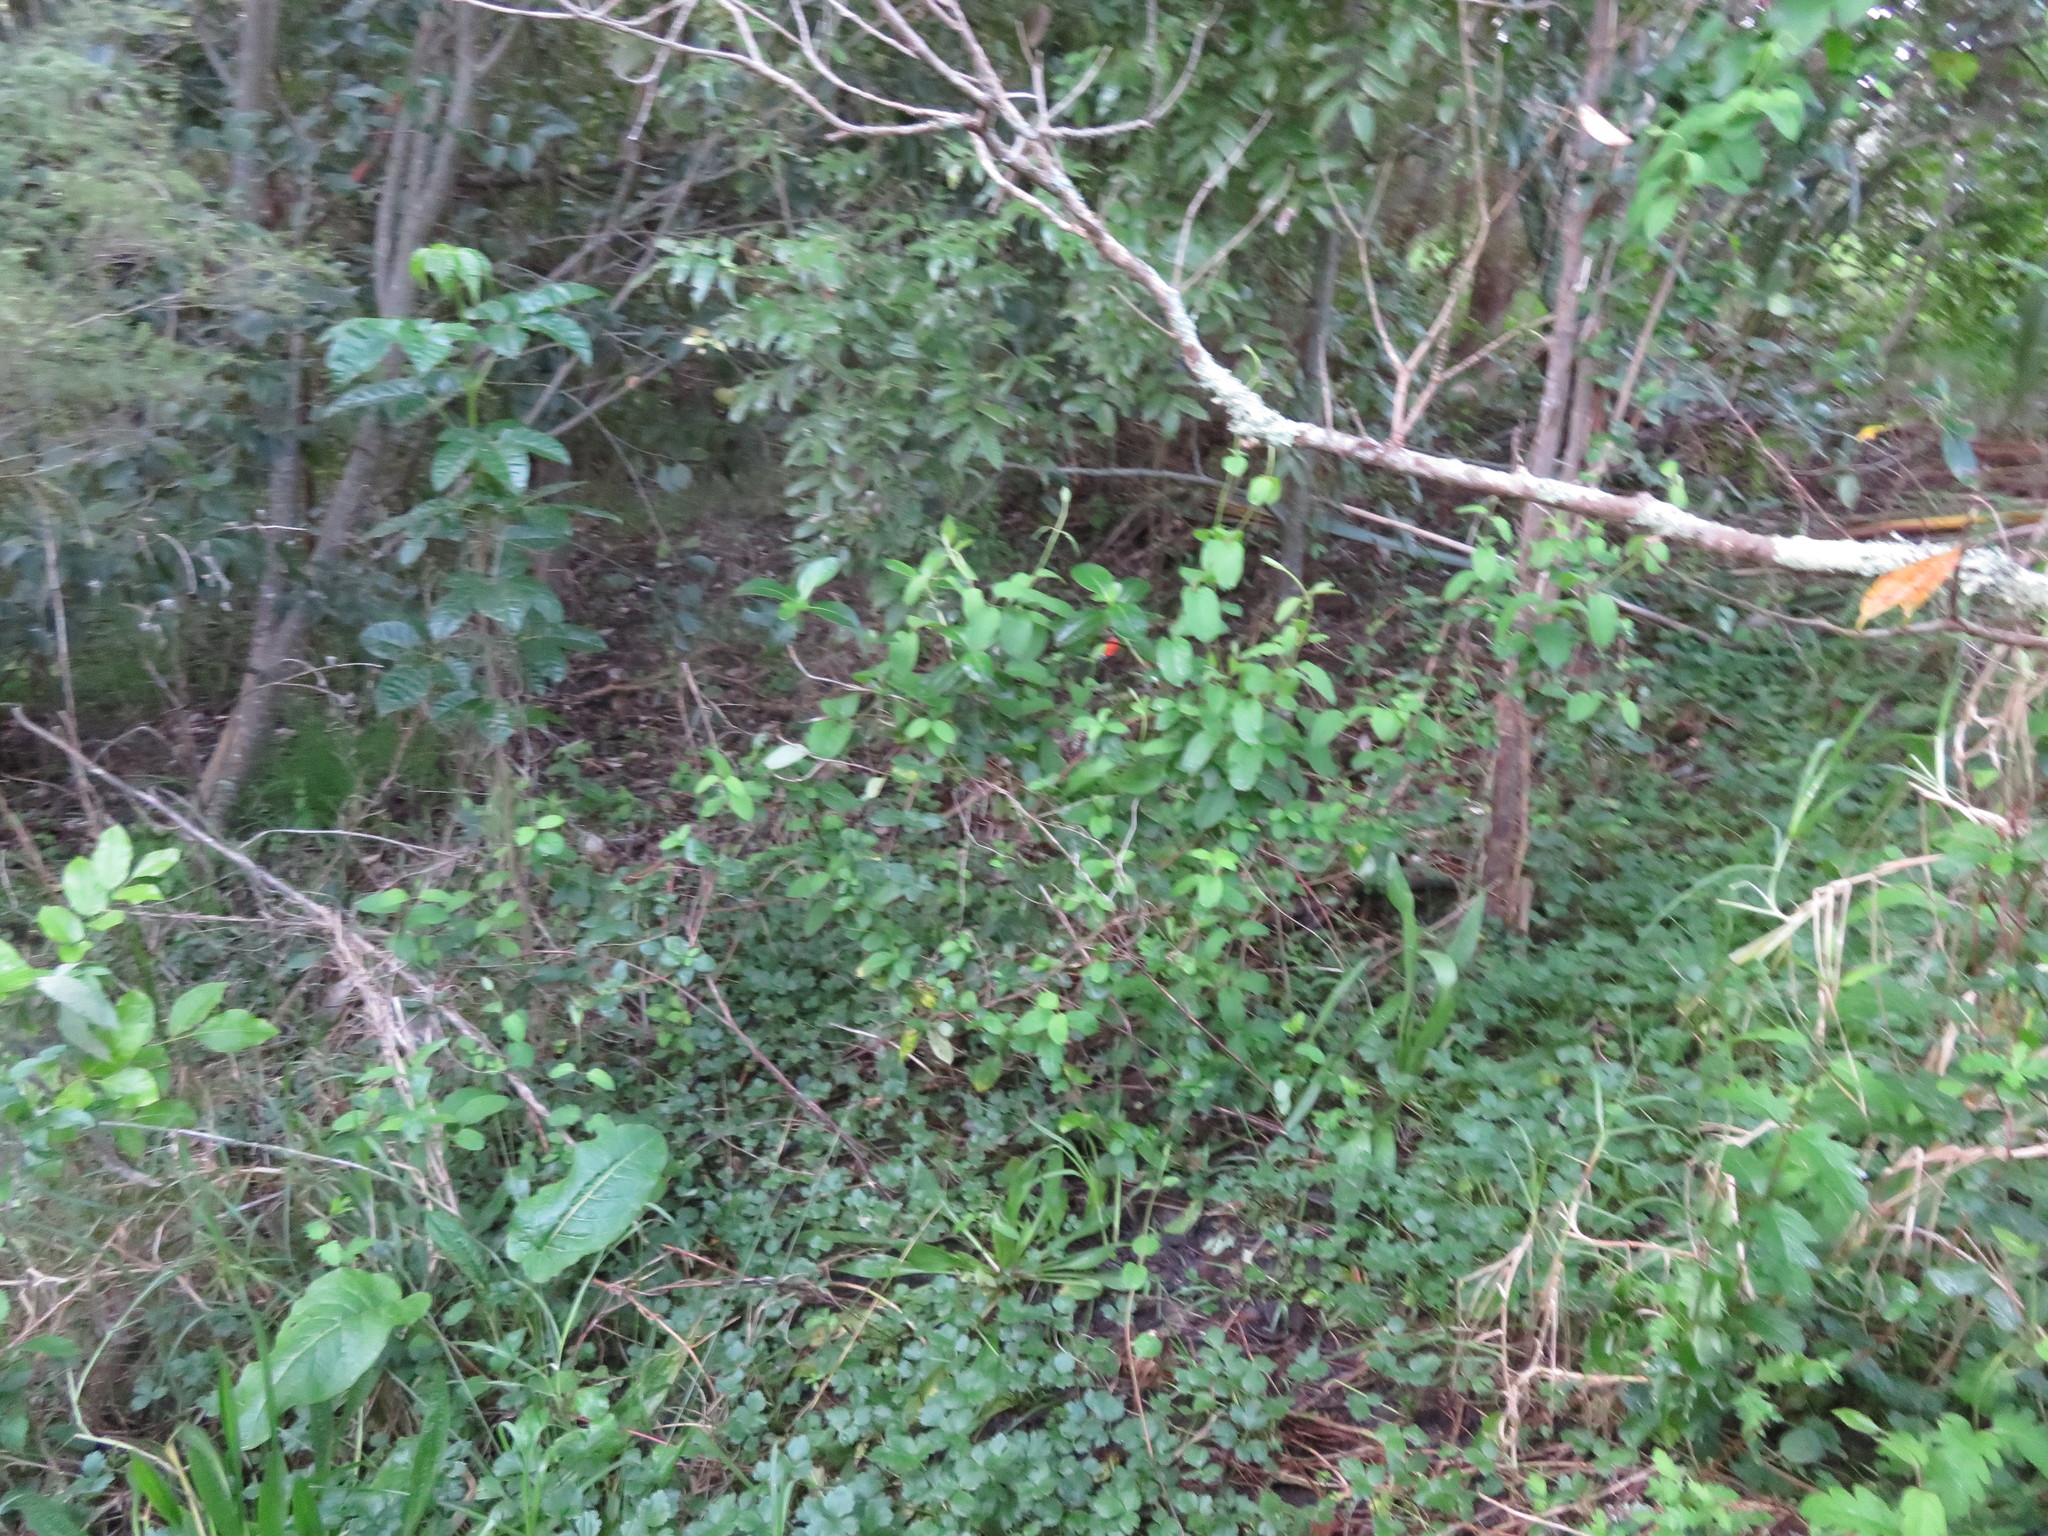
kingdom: Plantae
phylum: Tracheophyta
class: Magnoliopsida
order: Lamiales
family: Lamiaceae
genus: Vitex
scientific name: Vitex lucens
